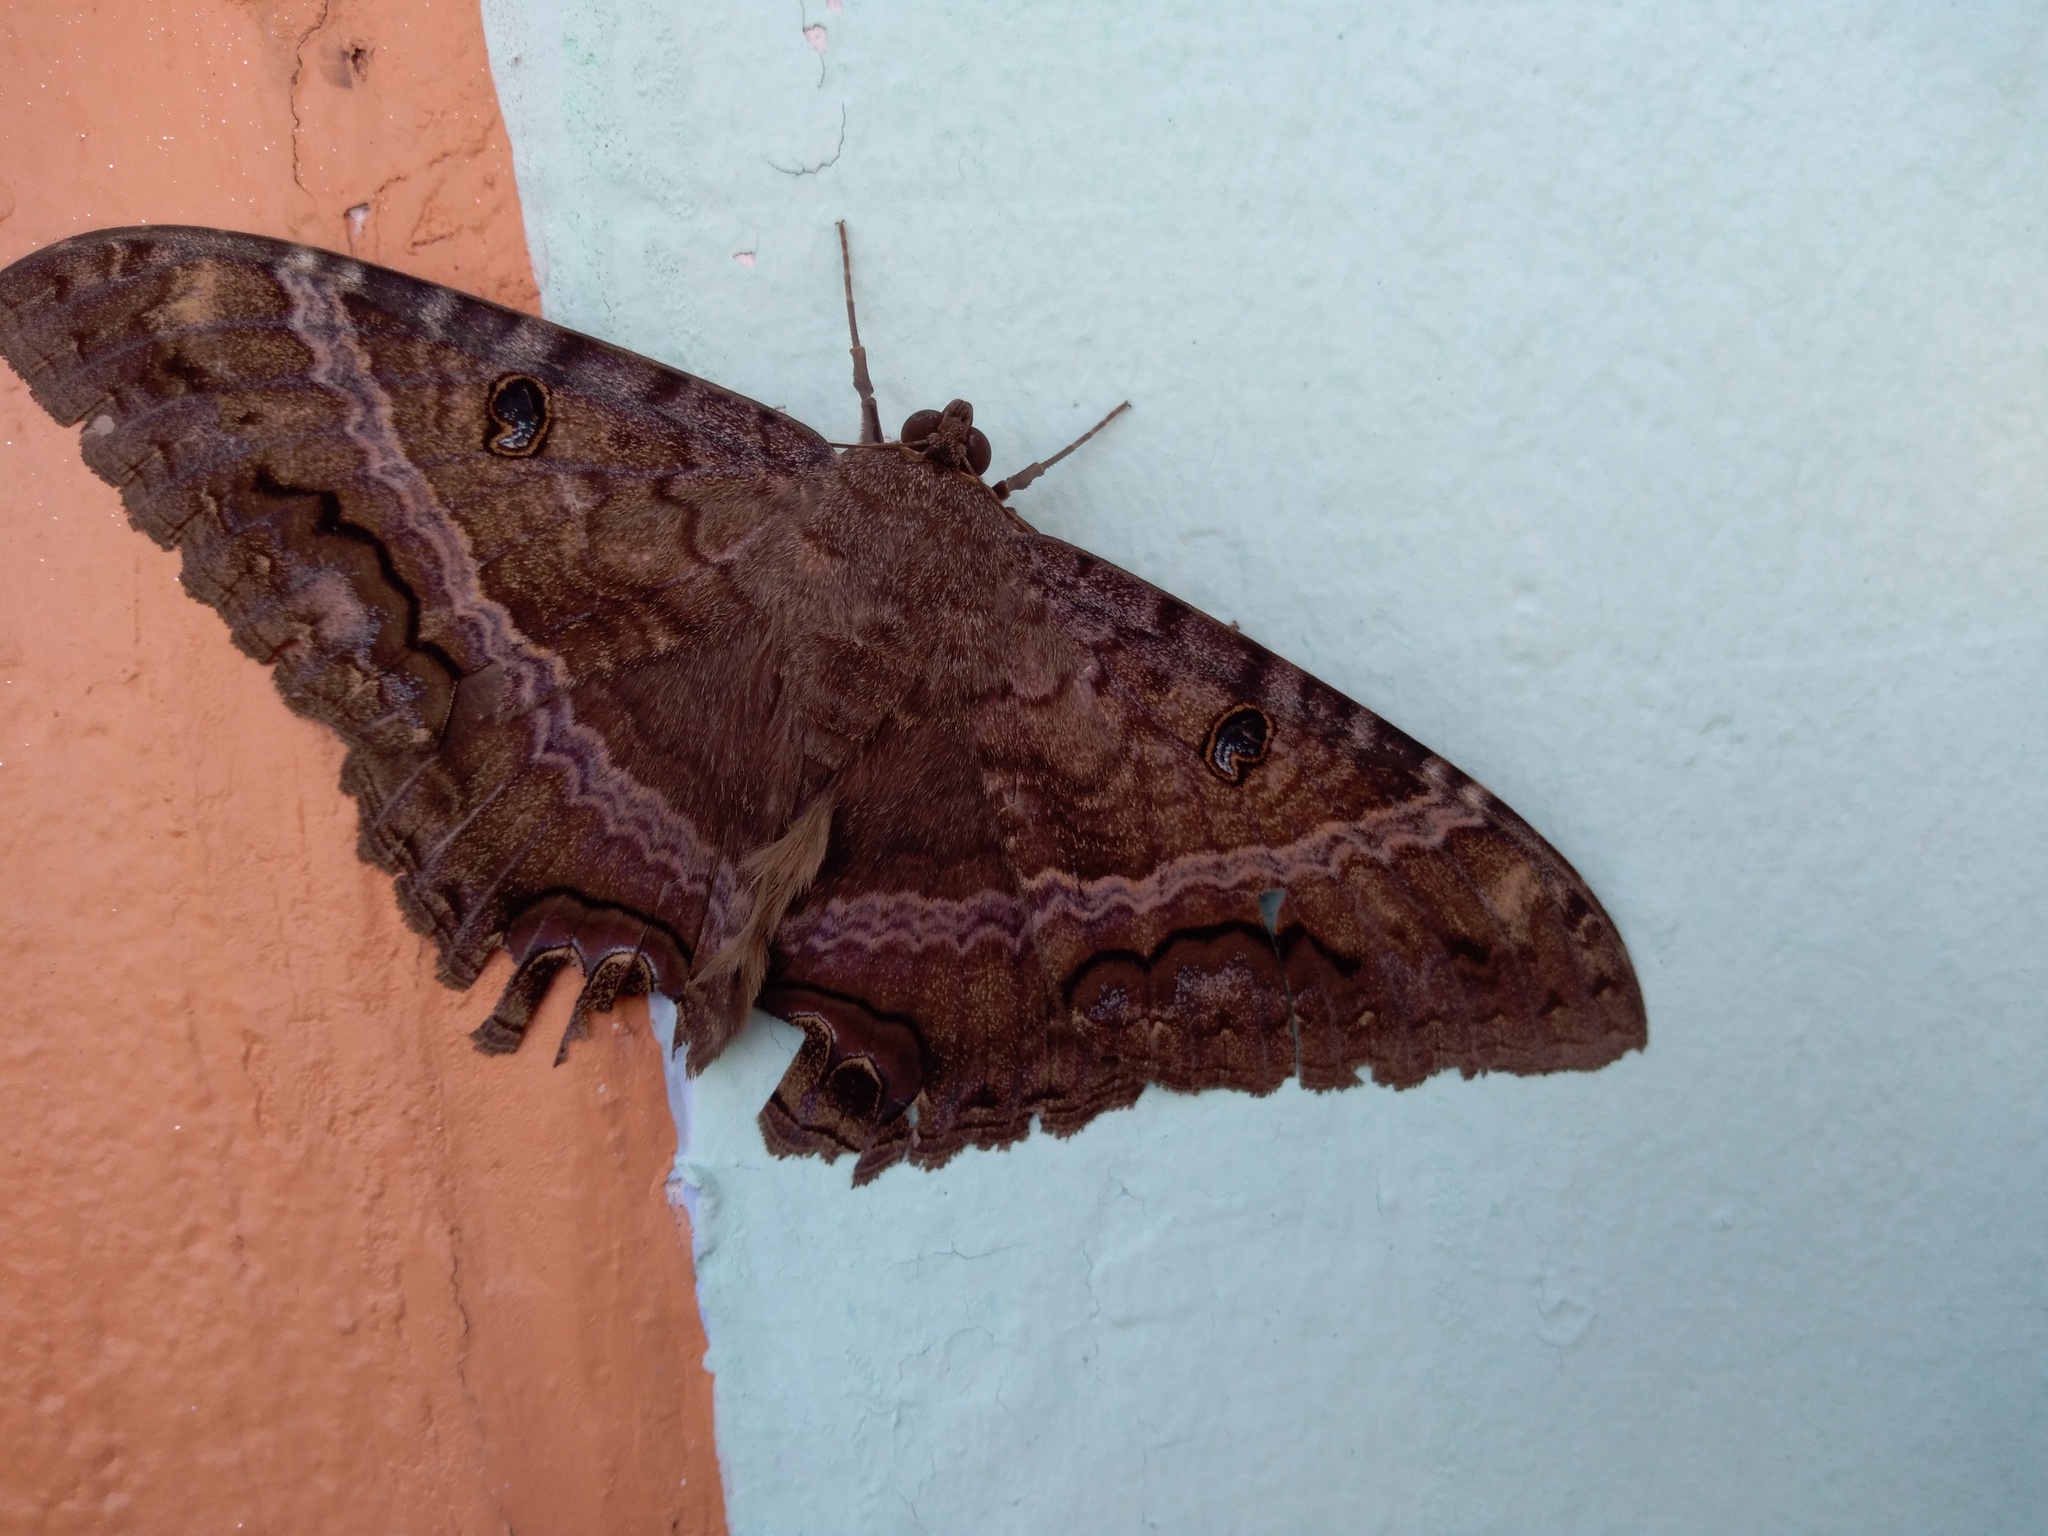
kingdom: Animalia
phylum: Arthropoda
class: Insecta
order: Lepidoptera
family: Erebidae
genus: Ascalapha
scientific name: Ascalapha odorata
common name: Black witch
